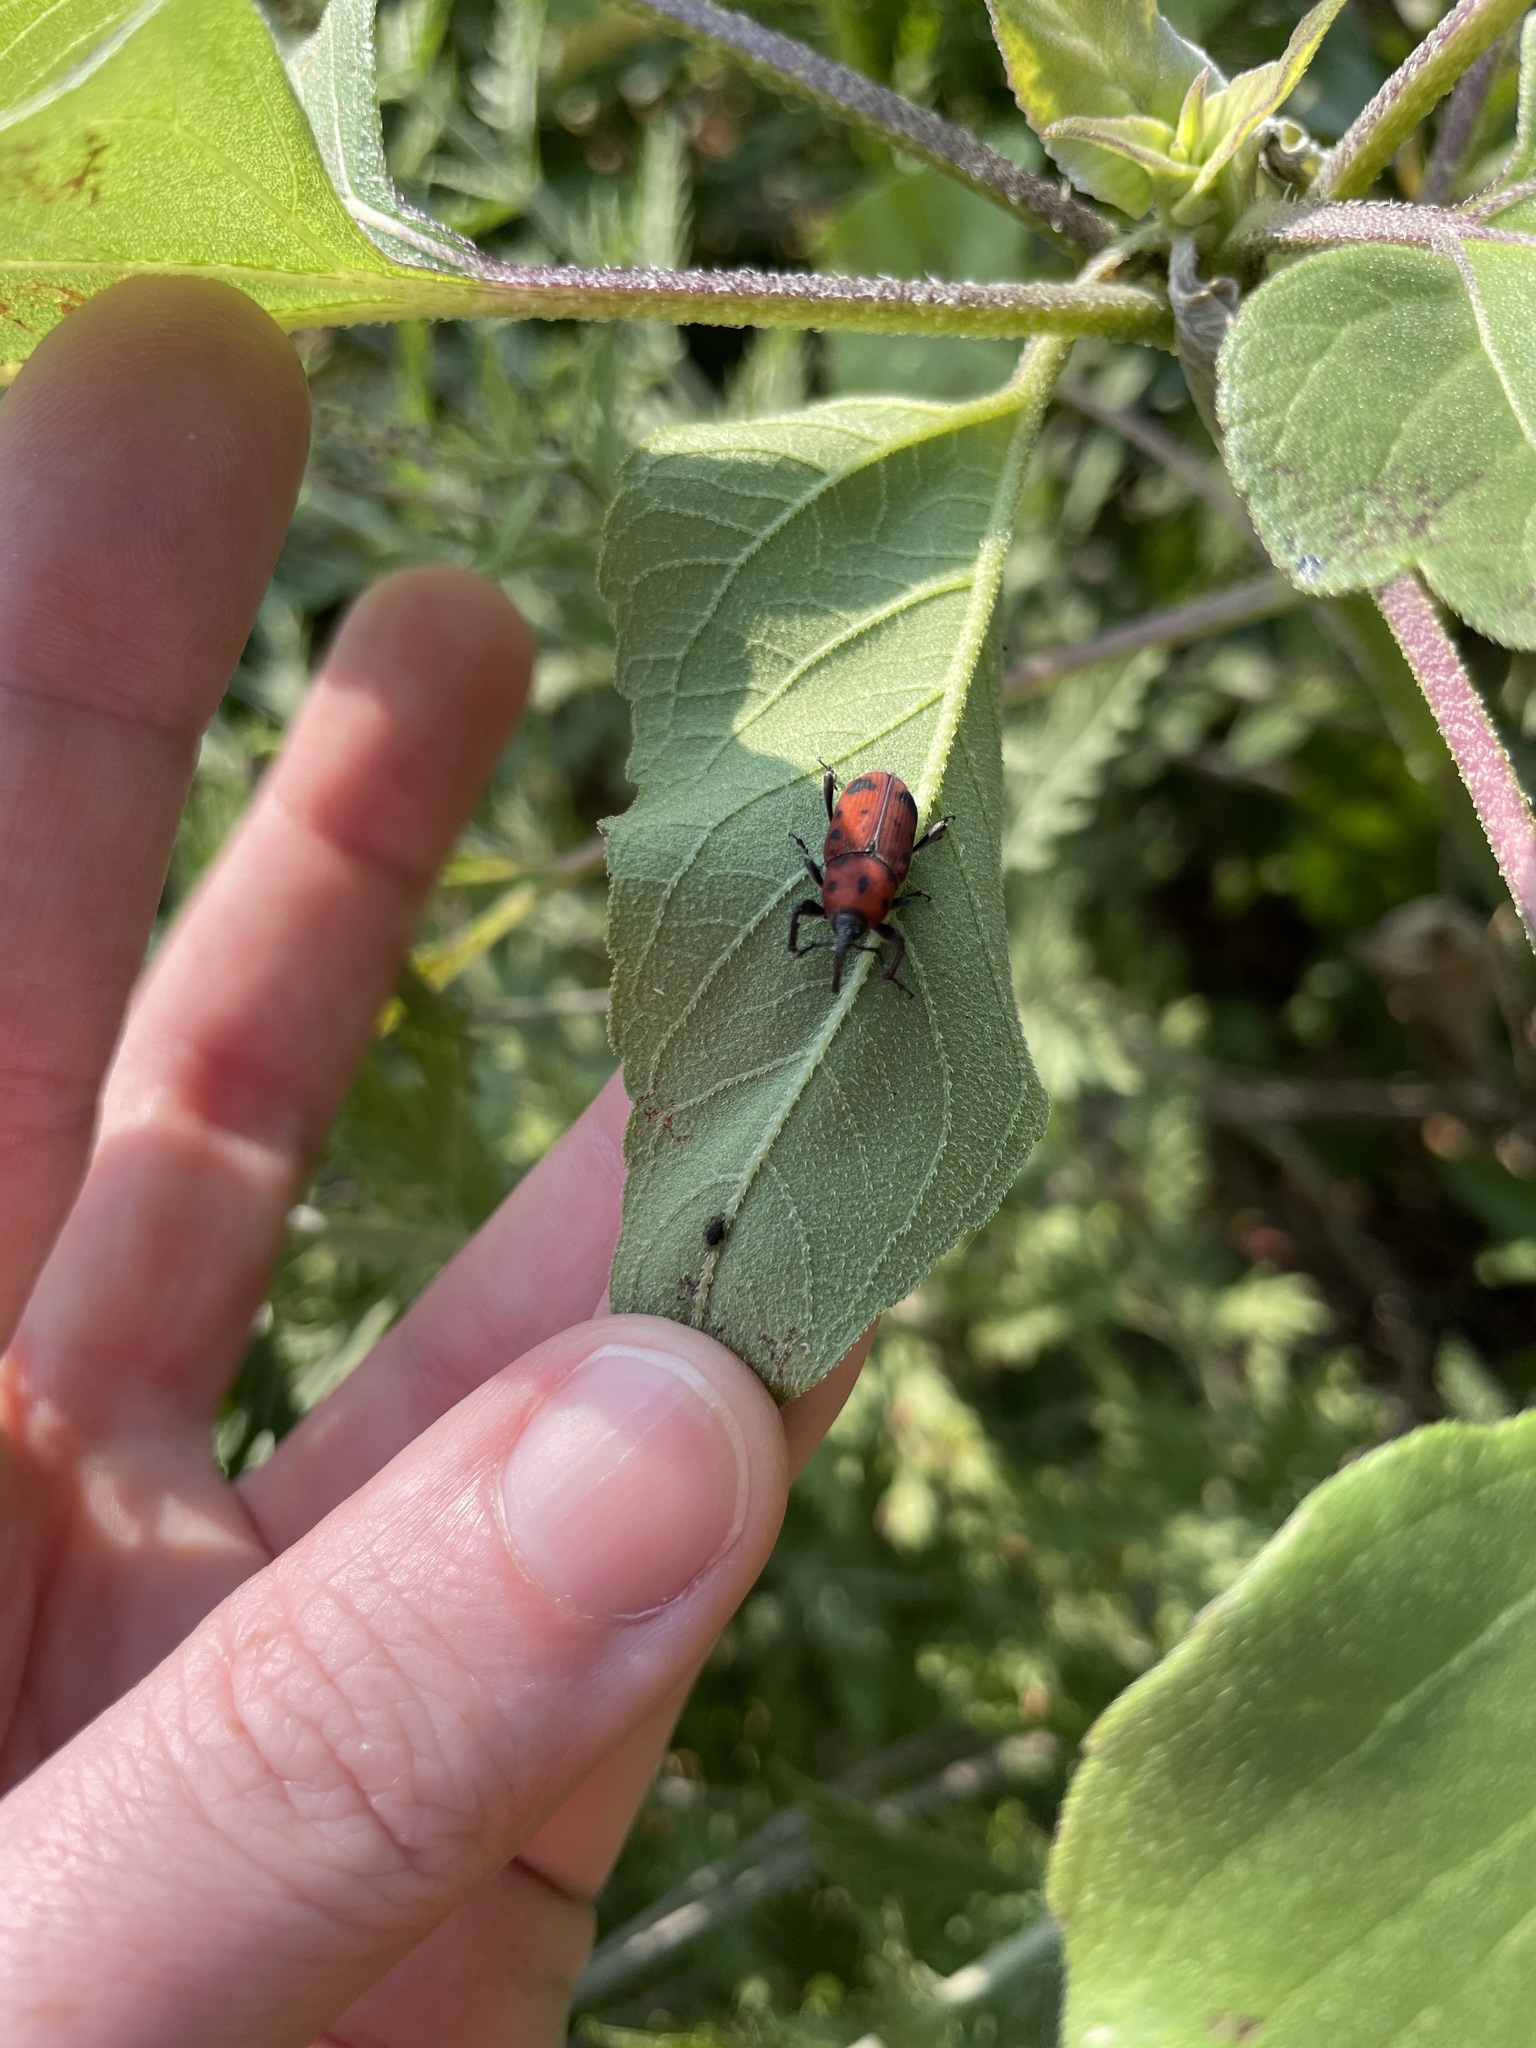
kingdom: Animalia
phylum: Arthropoda
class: Insecta
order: Coleoptera
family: Dryophthoridae
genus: Rhodobaenus
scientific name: Rhodobaenus tredecimpunctatus
